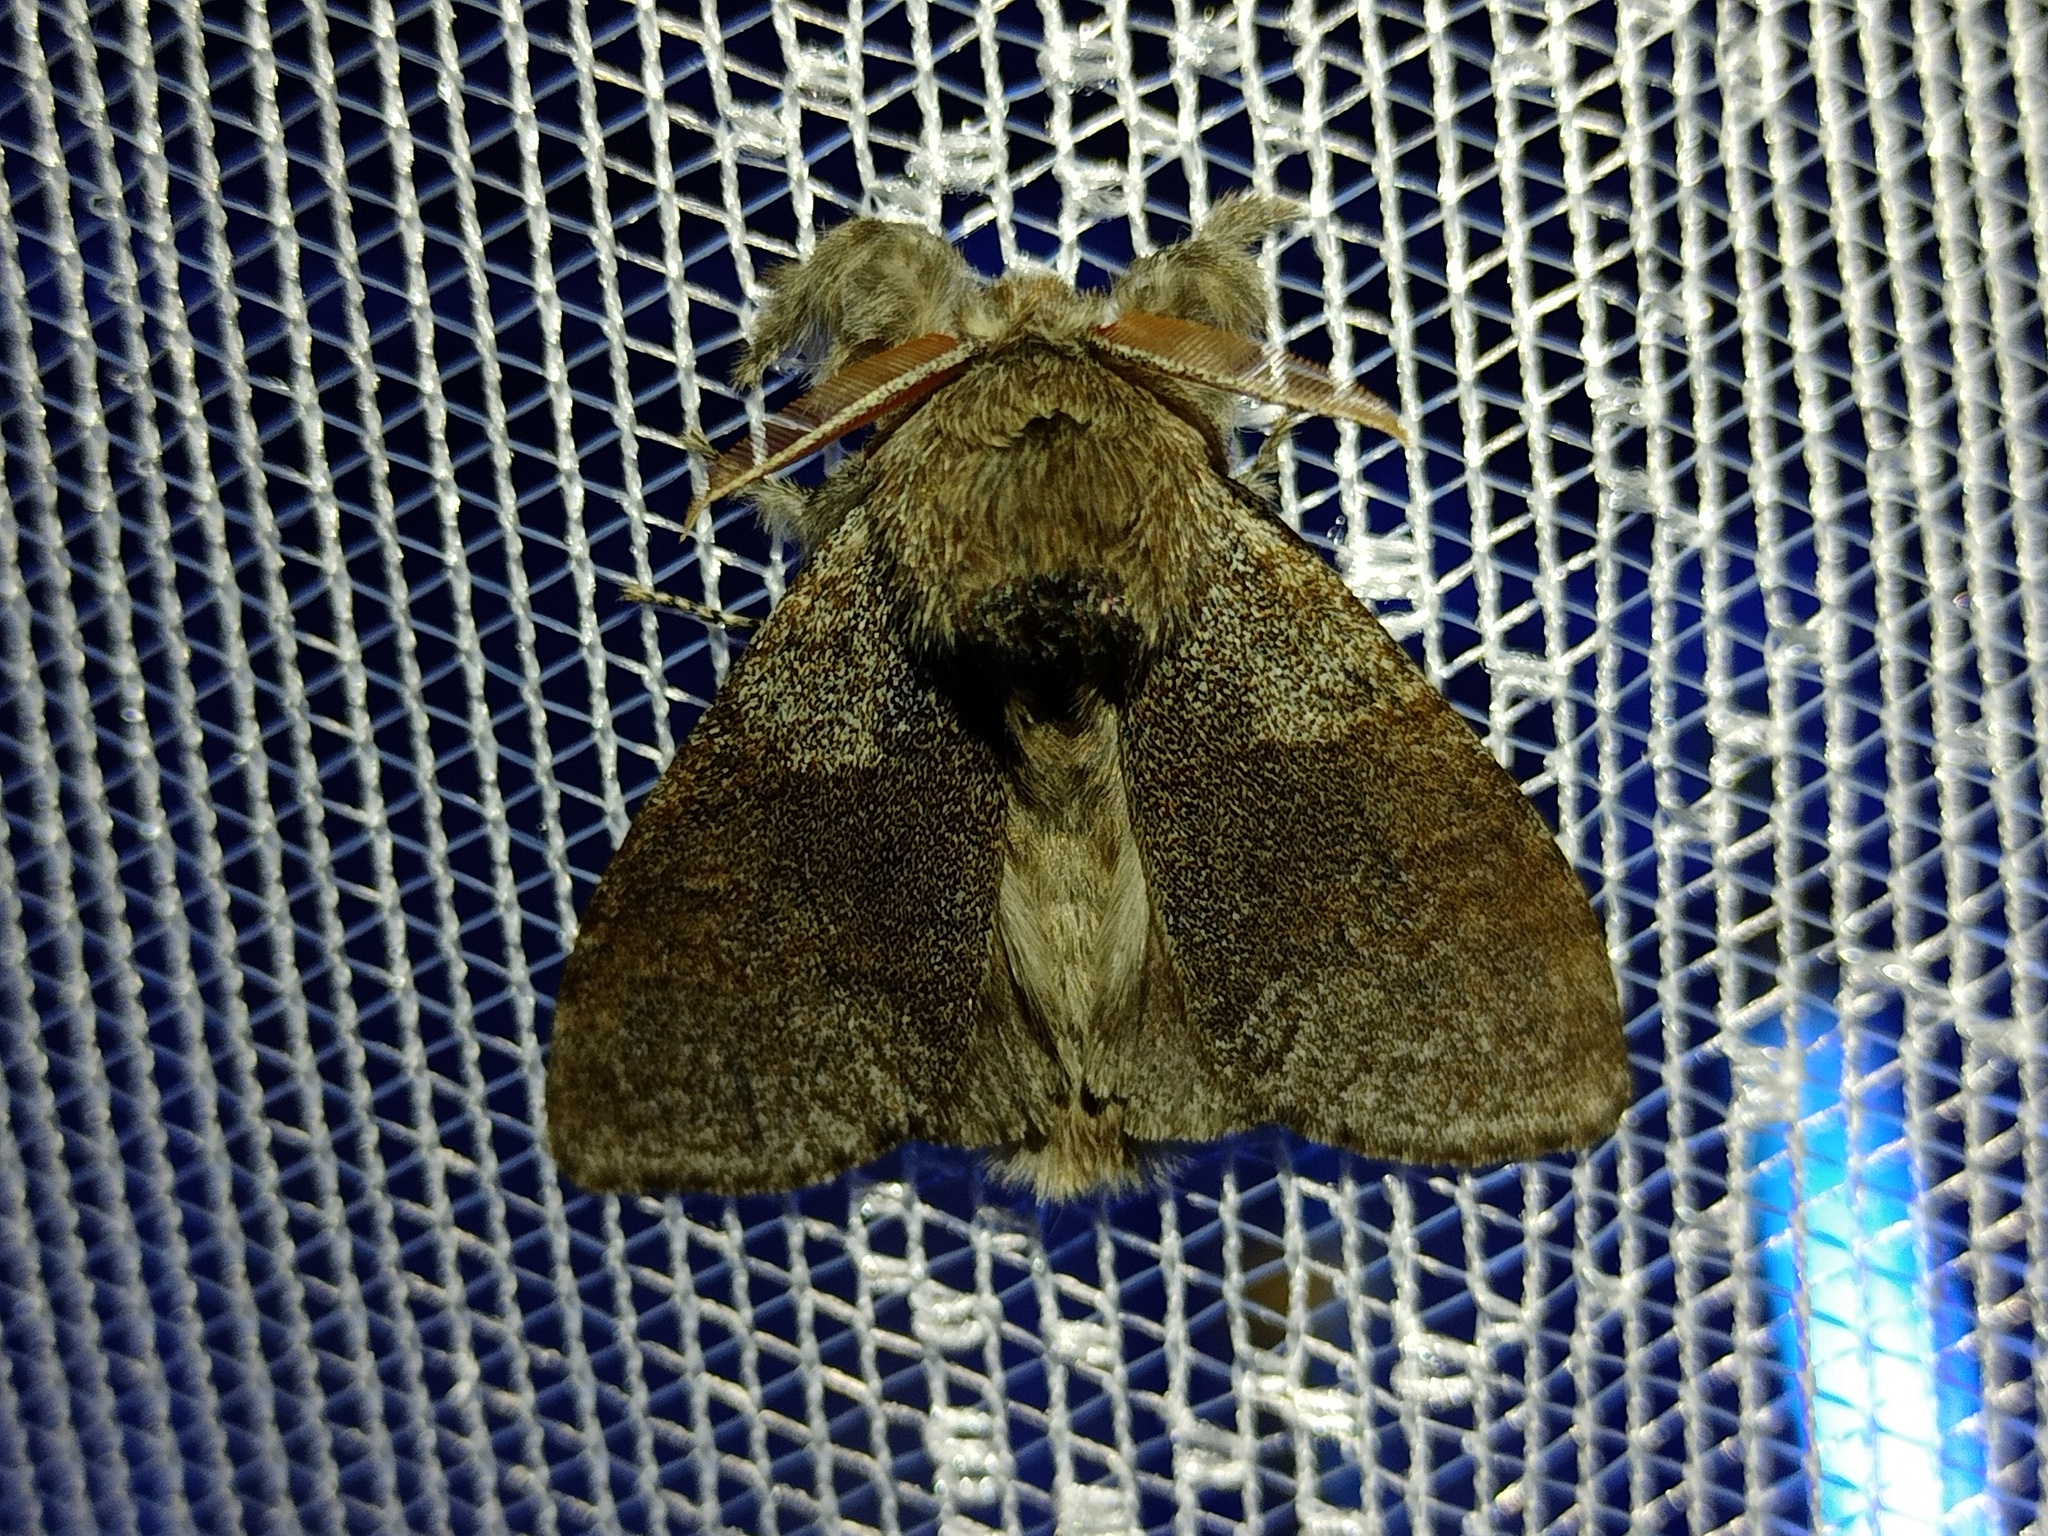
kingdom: Animalia
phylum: Arthropoda
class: Insecta
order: Lepidoptera
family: Erebidae
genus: Calliteara
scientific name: Calliteara pudibunda
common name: Pale tussock
